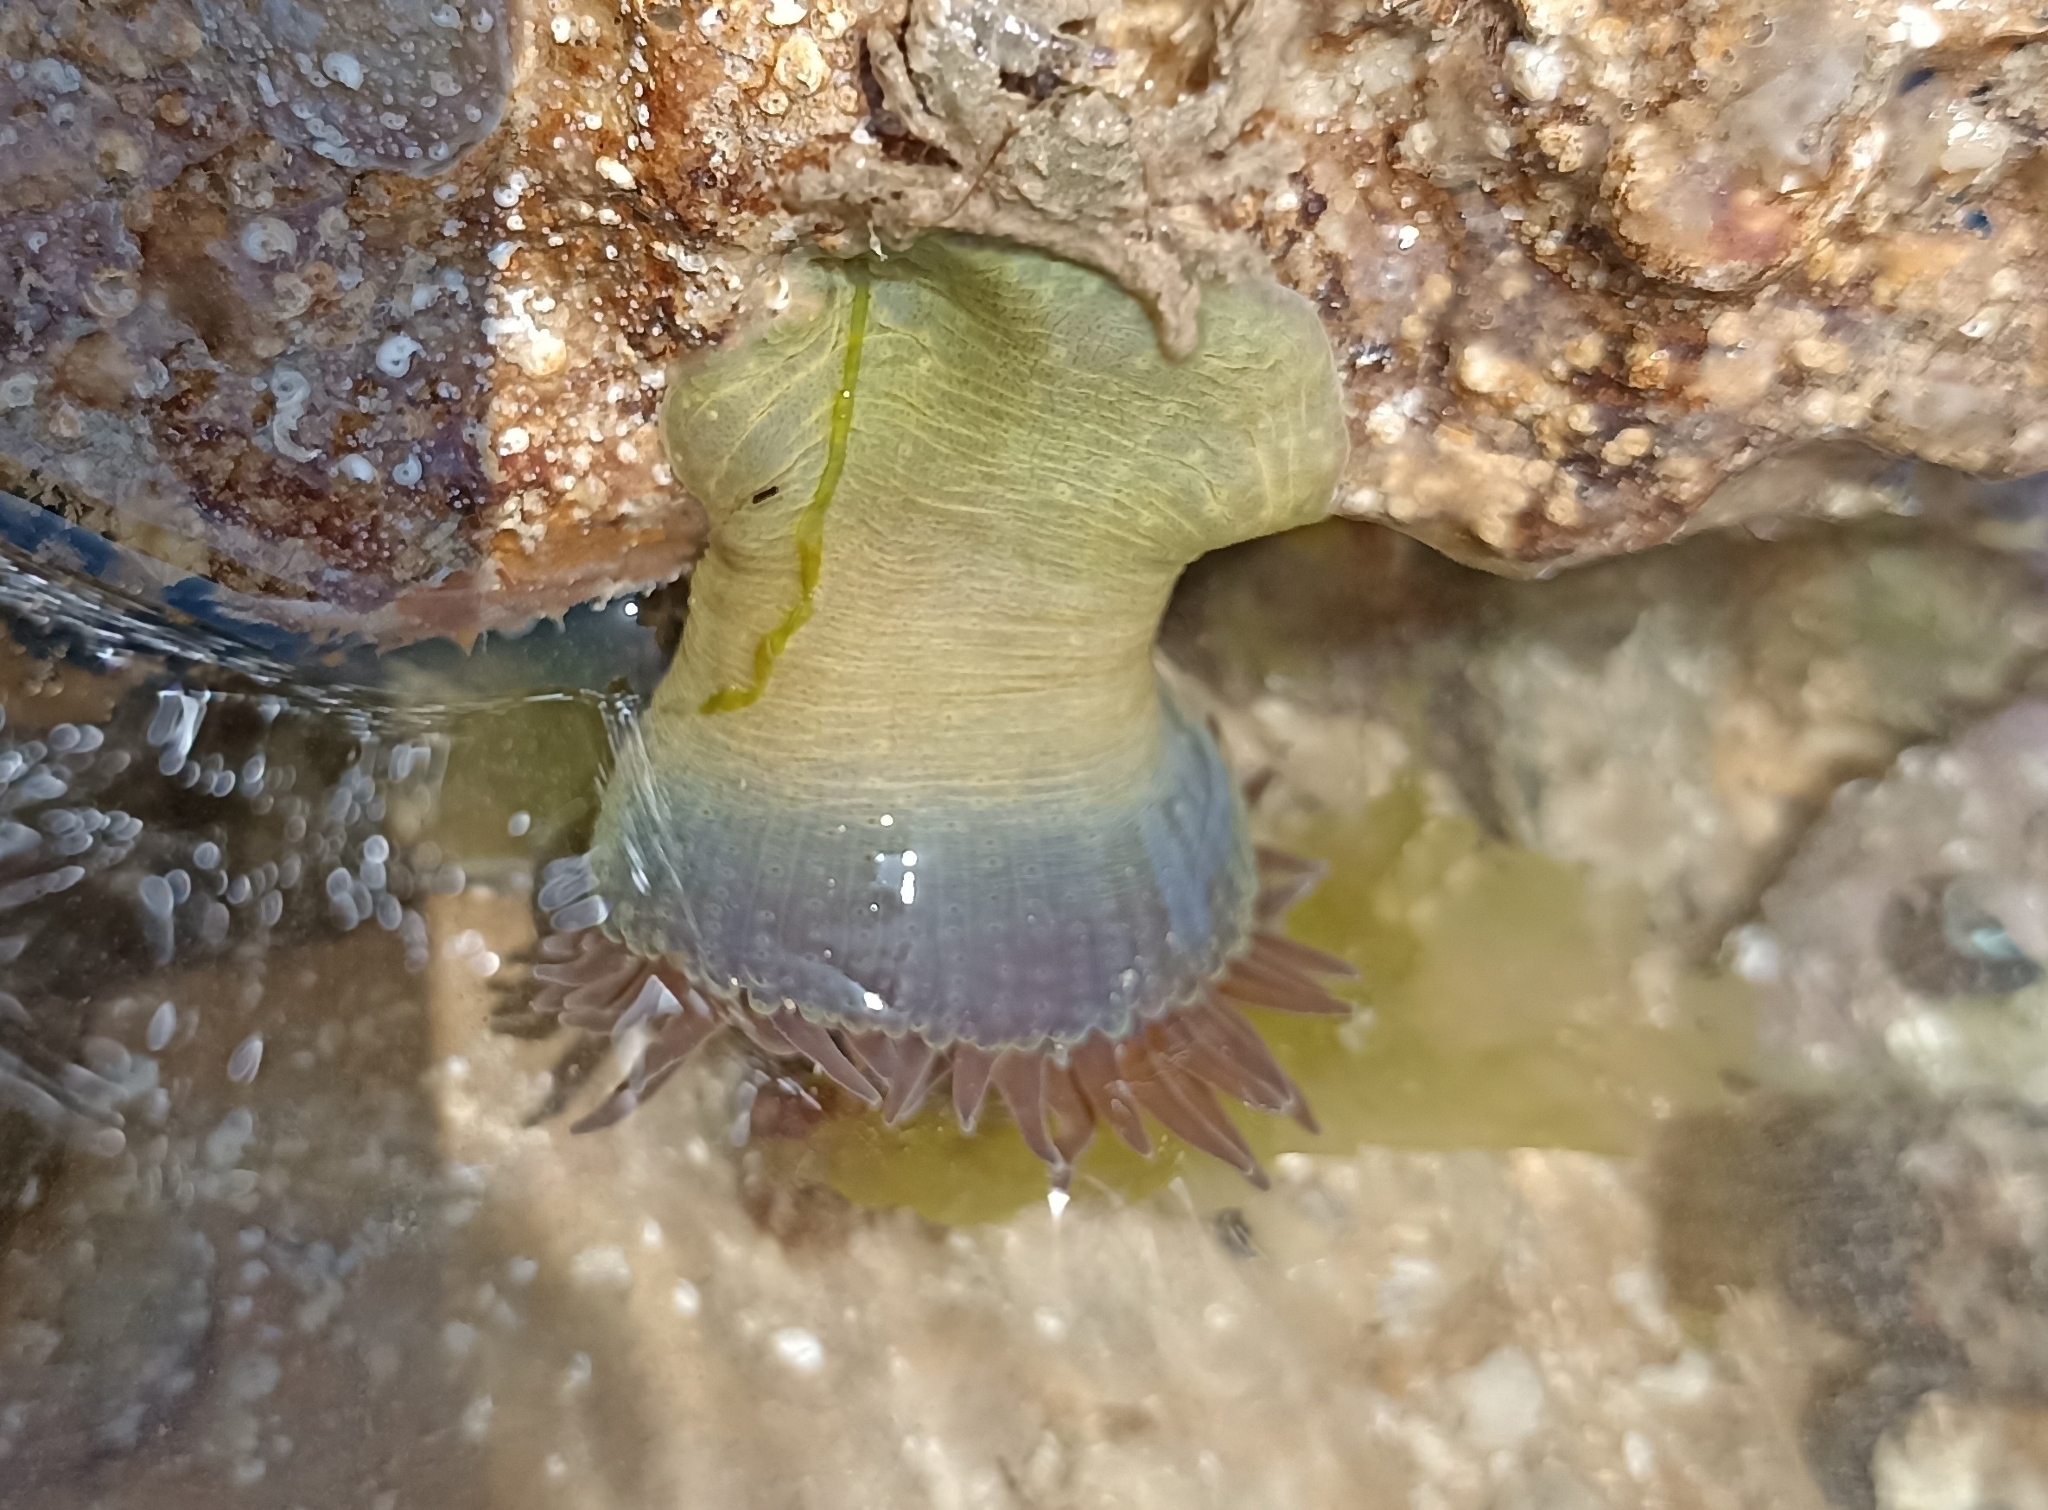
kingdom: Animalia
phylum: Cnidaria
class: Anthozoa
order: Actiniaria
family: Actiniidae
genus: Anthopleura
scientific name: Anthopleura ballii
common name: Red speckled anemone
